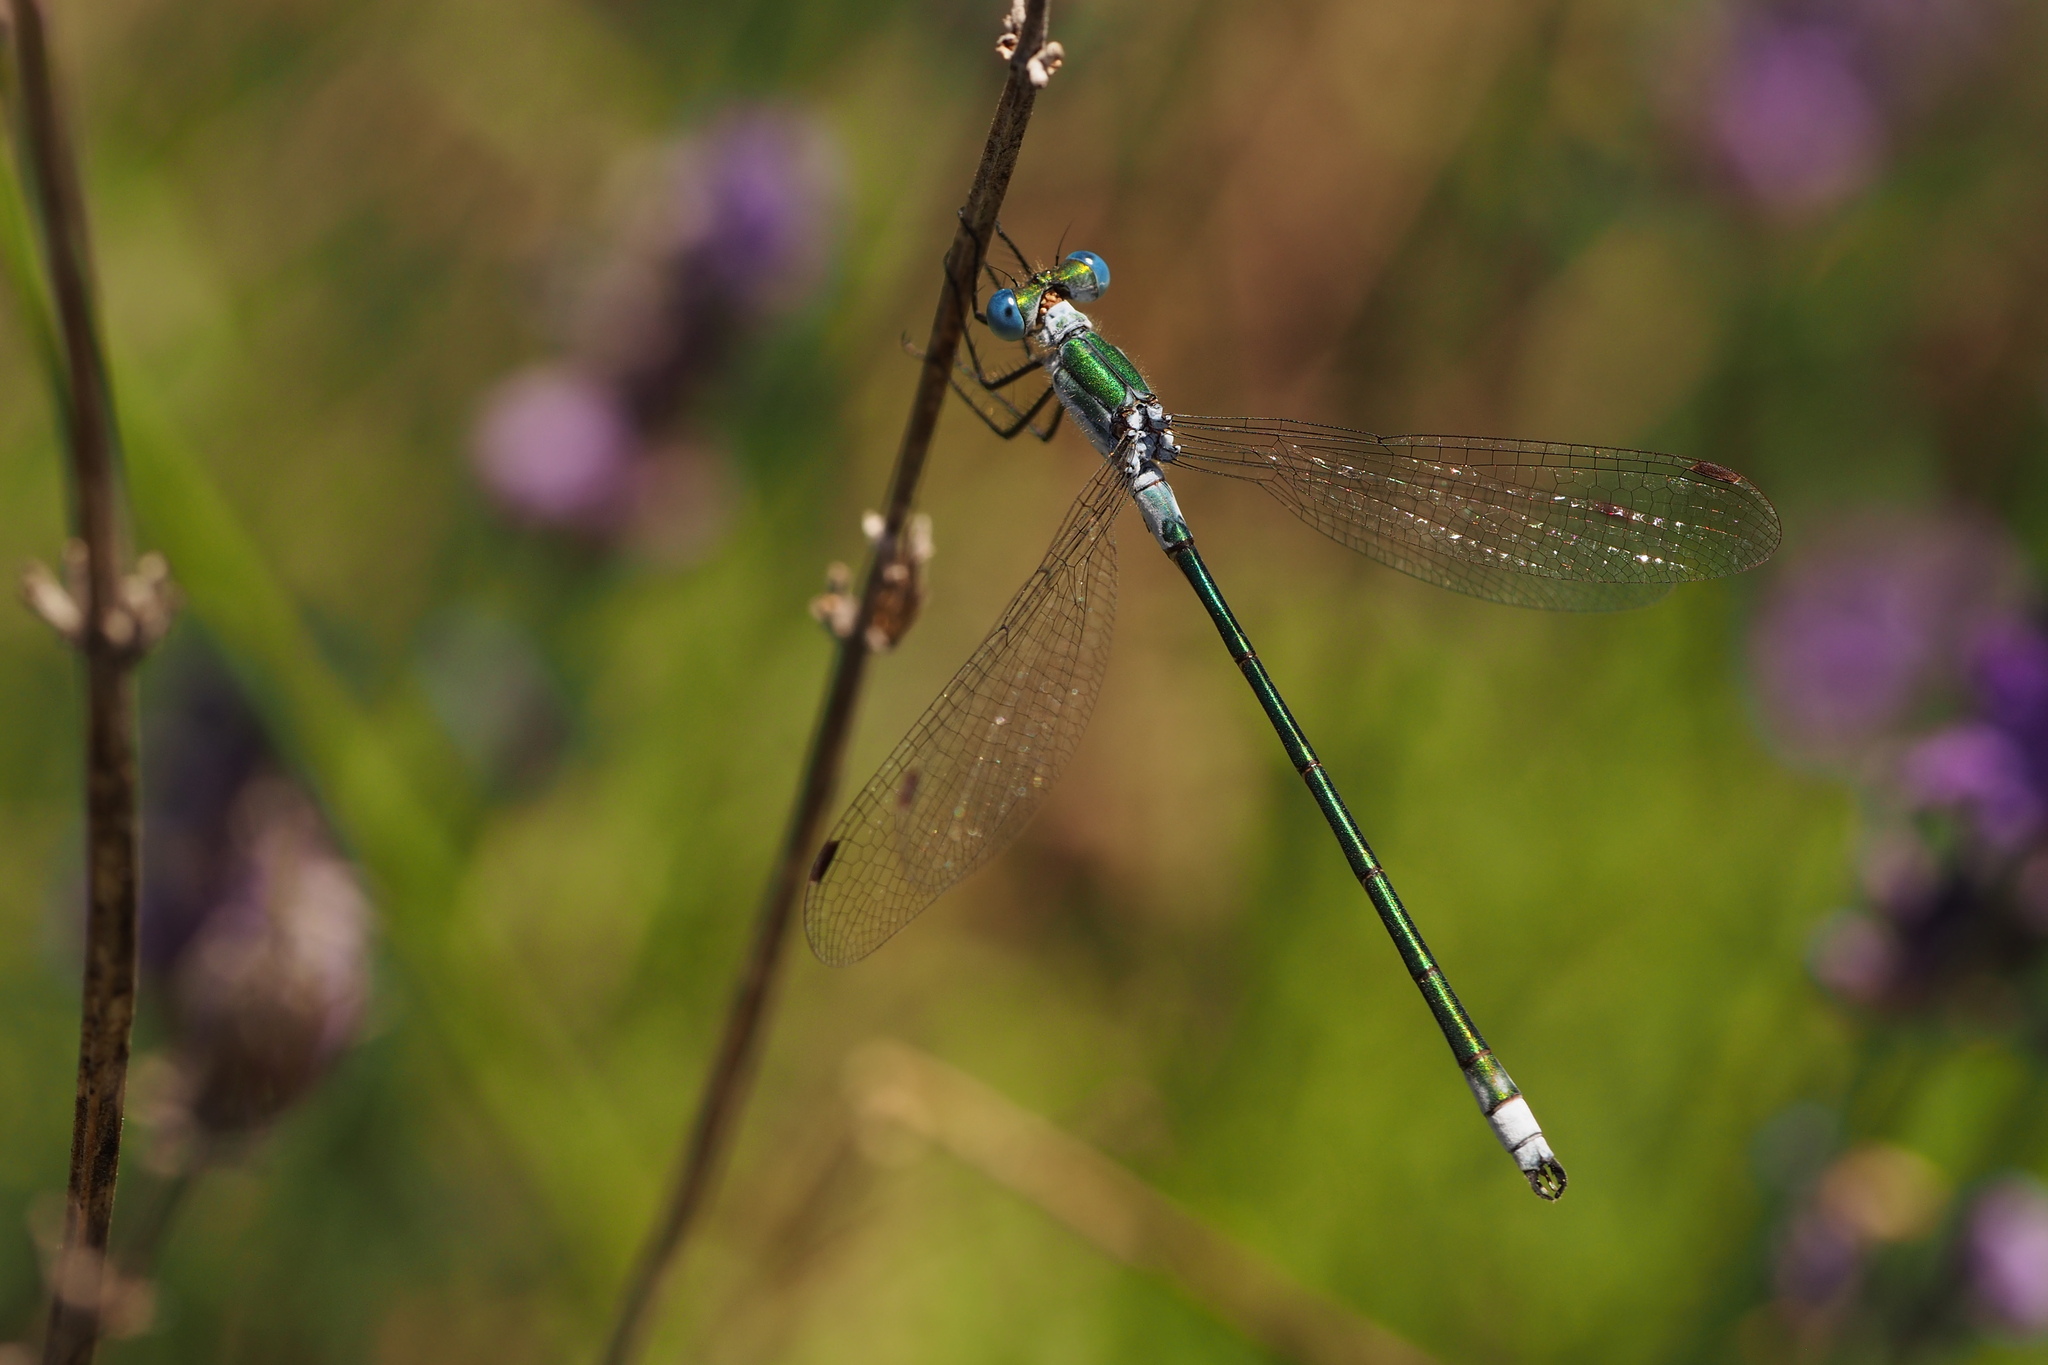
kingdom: Animalia
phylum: Arthropoda
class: Insecta
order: Odonata
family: Lestidae
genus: Lestes
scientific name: Lestes sponsa
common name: Common spreadwing
